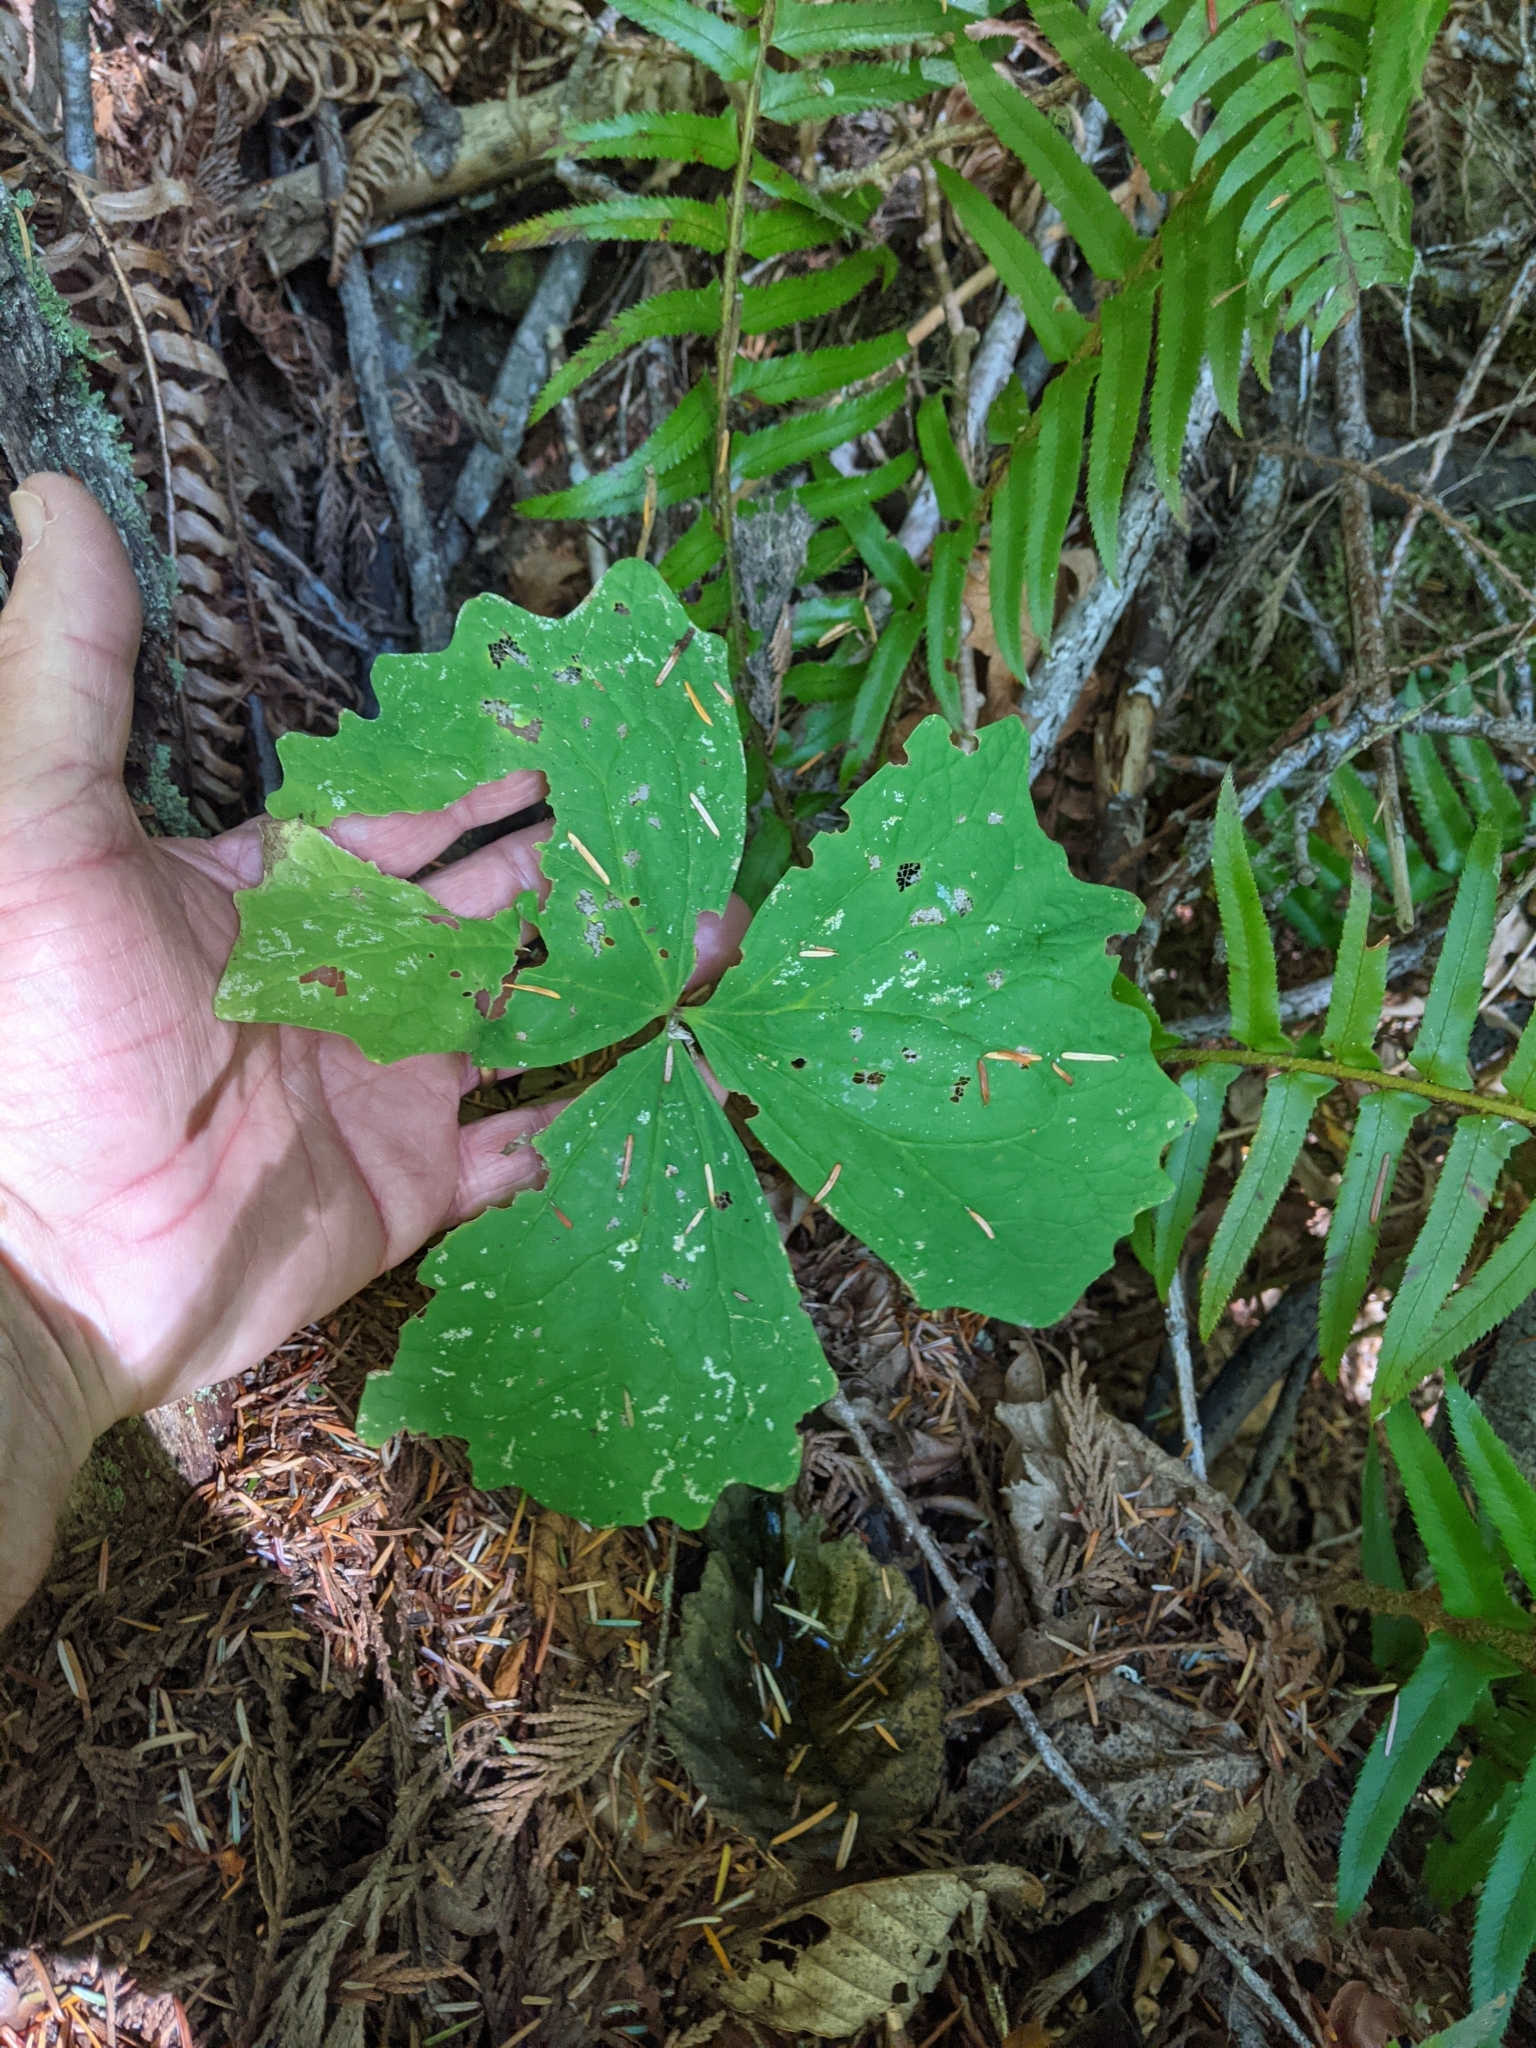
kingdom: Plantae
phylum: Tracheophyta
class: Magnoliopsida
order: Ranunculales
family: Berberidaceae
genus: Achlys
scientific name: Achlys californica
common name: California deer-foot
